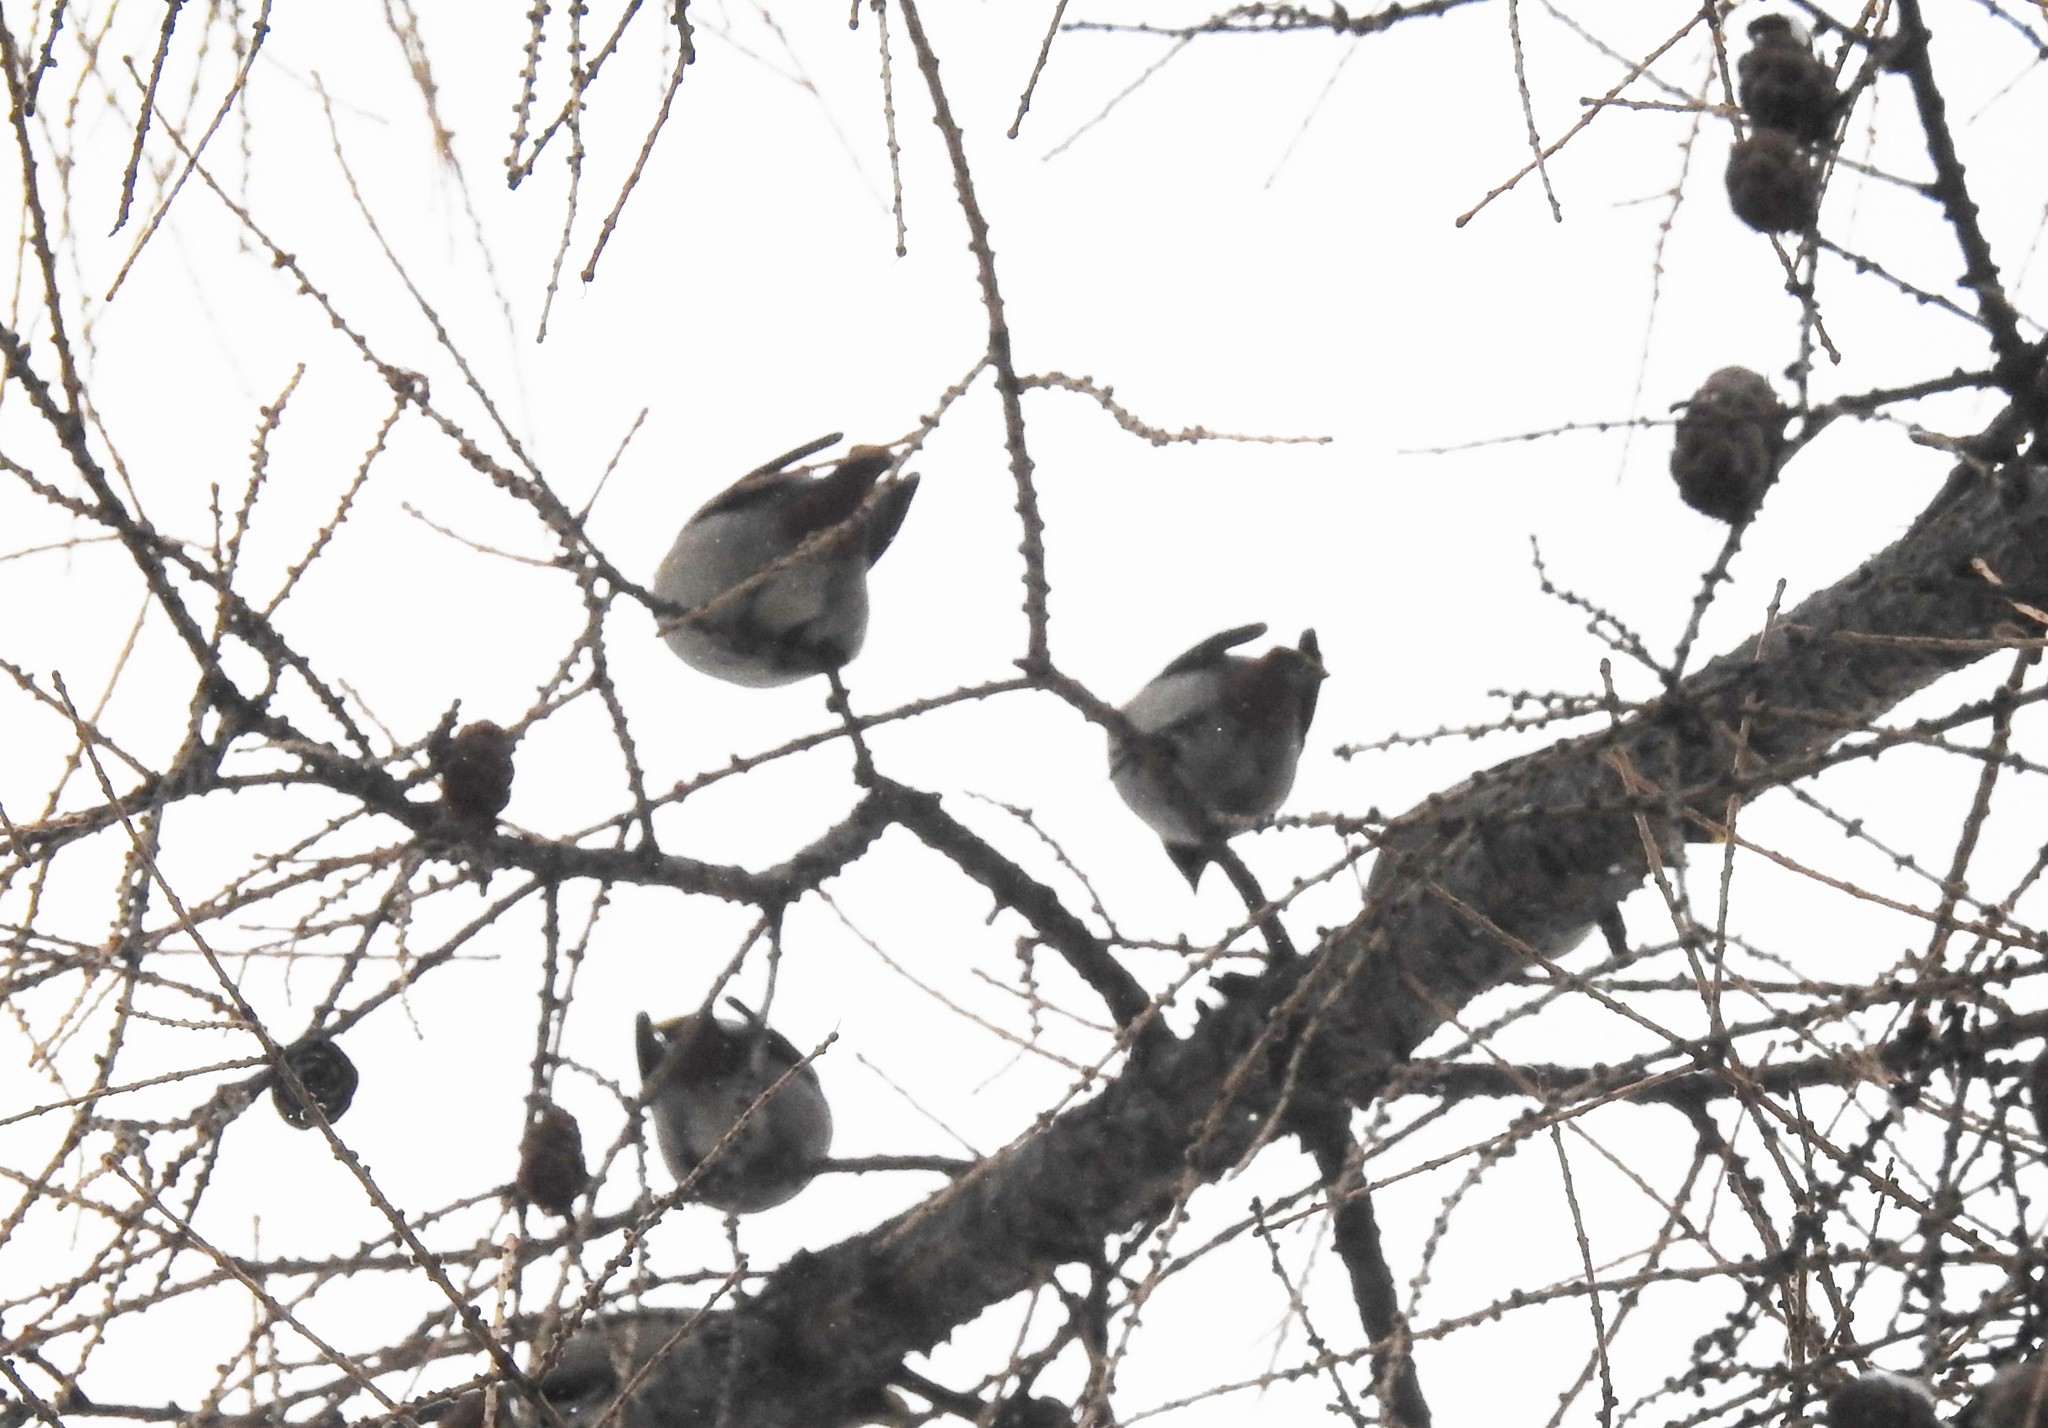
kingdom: Animalia
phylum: Chordata
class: Aves
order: Passeriformes
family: Bombycillidae
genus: Bombycilla
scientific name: Bombycilla garrulus
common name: Bohemian waxwing
